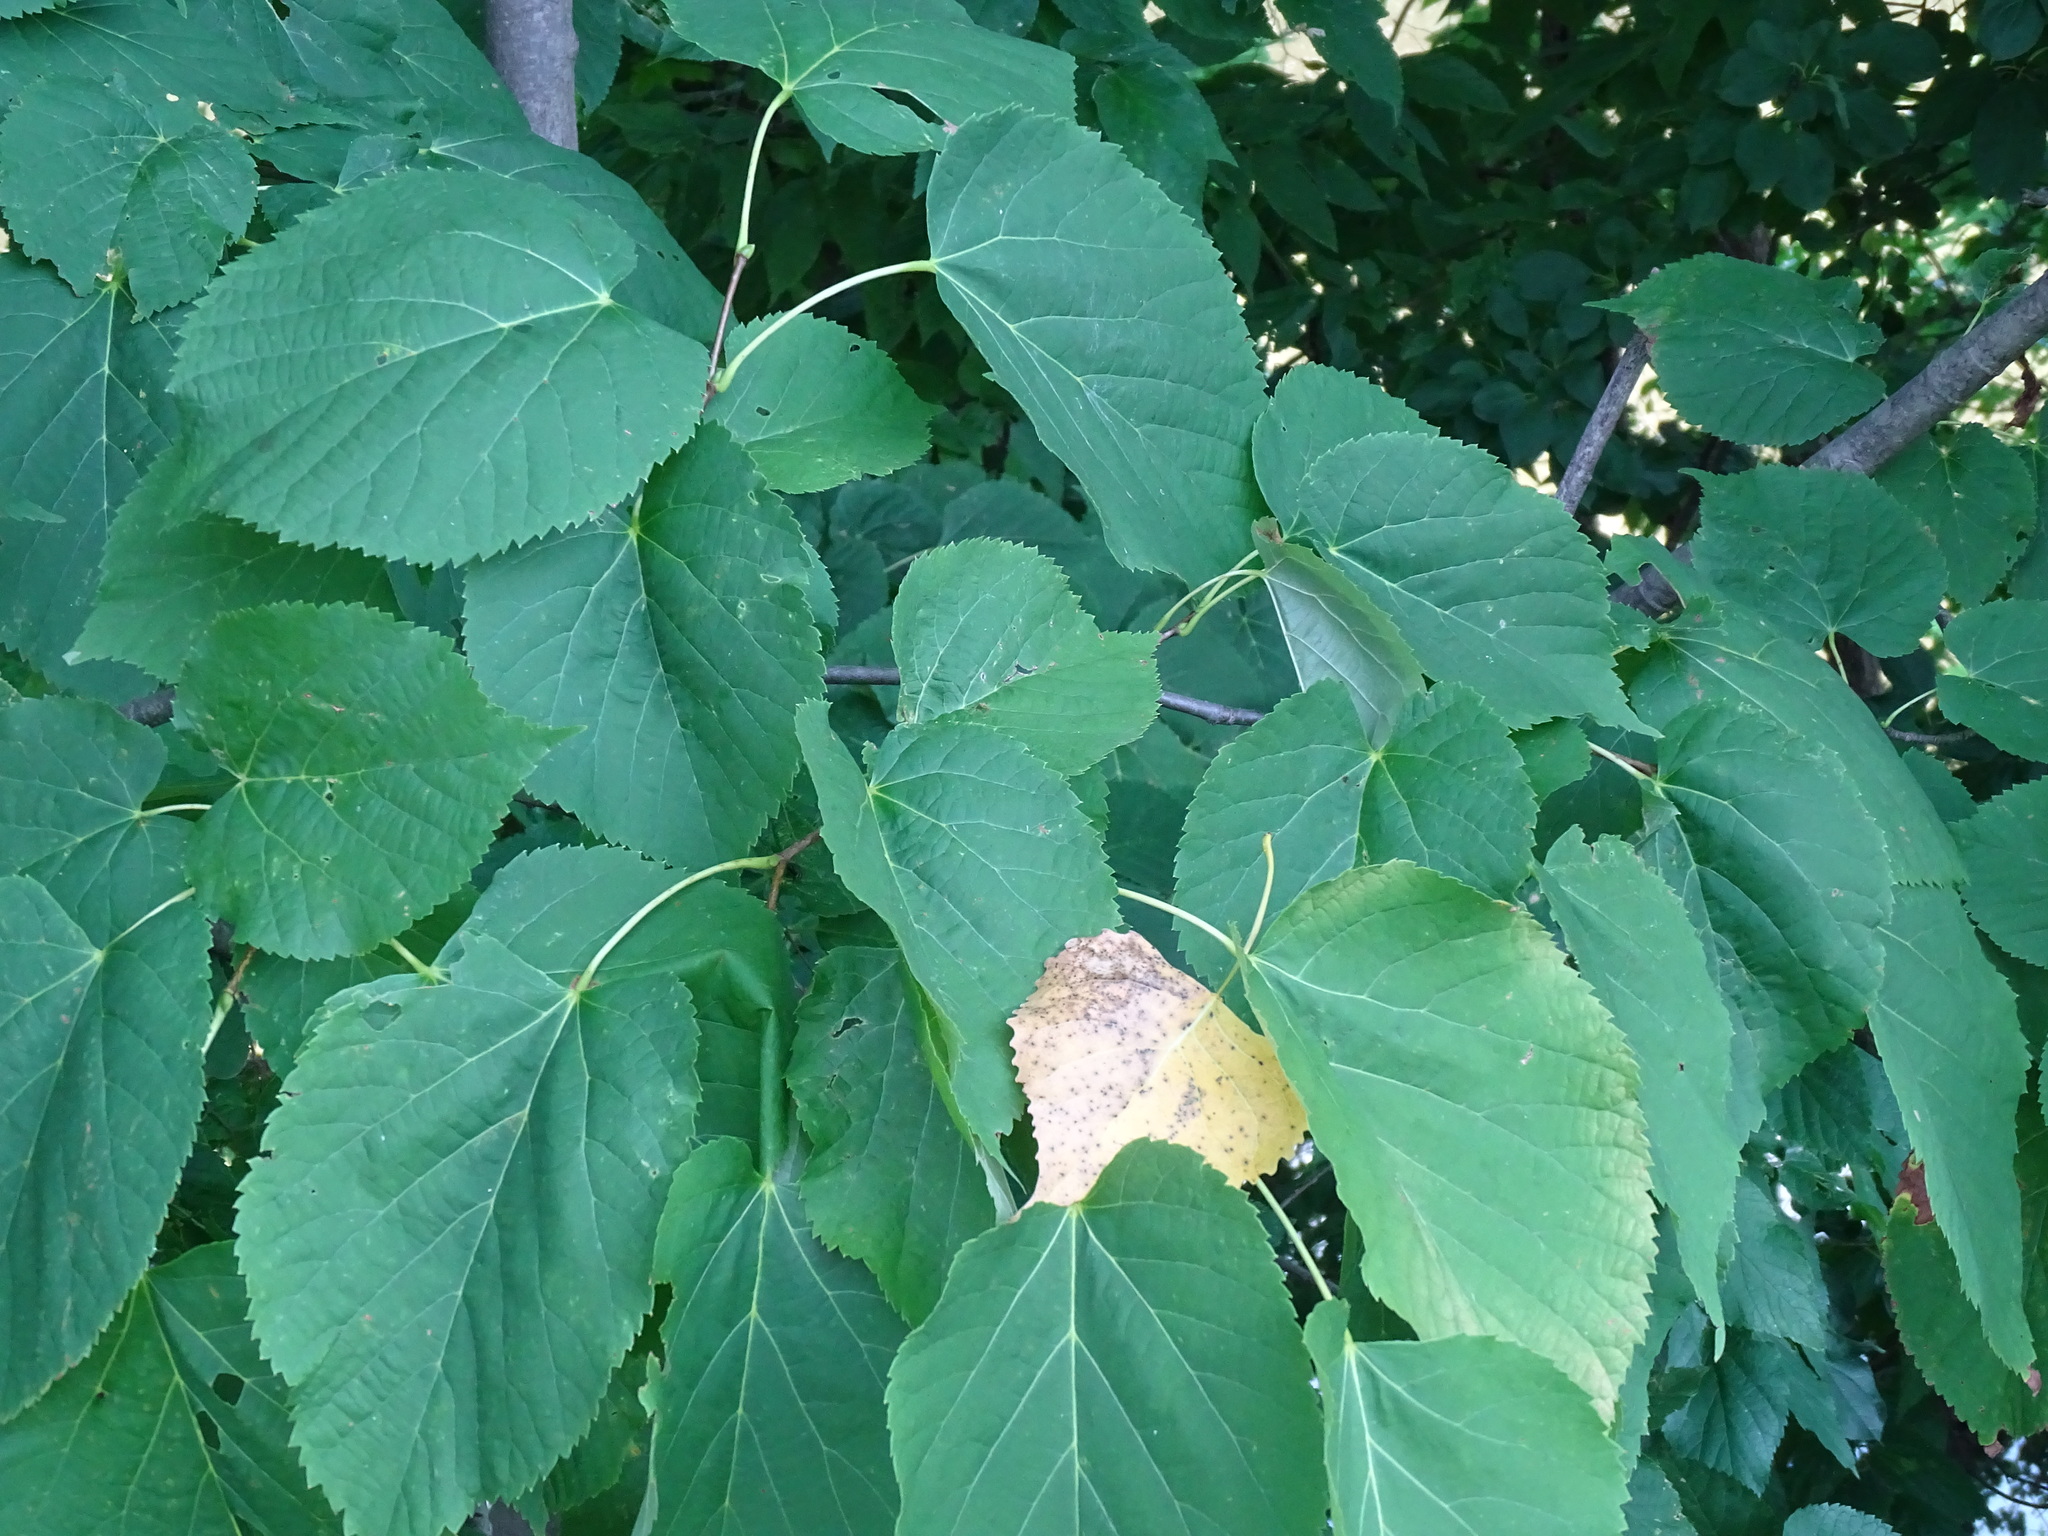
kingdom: Plantae
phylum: Tracheophyta
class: Magnoliopsida
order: Malvales
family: Malvaceae
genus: Tilia
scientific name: Tilia americana
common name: Basswood
